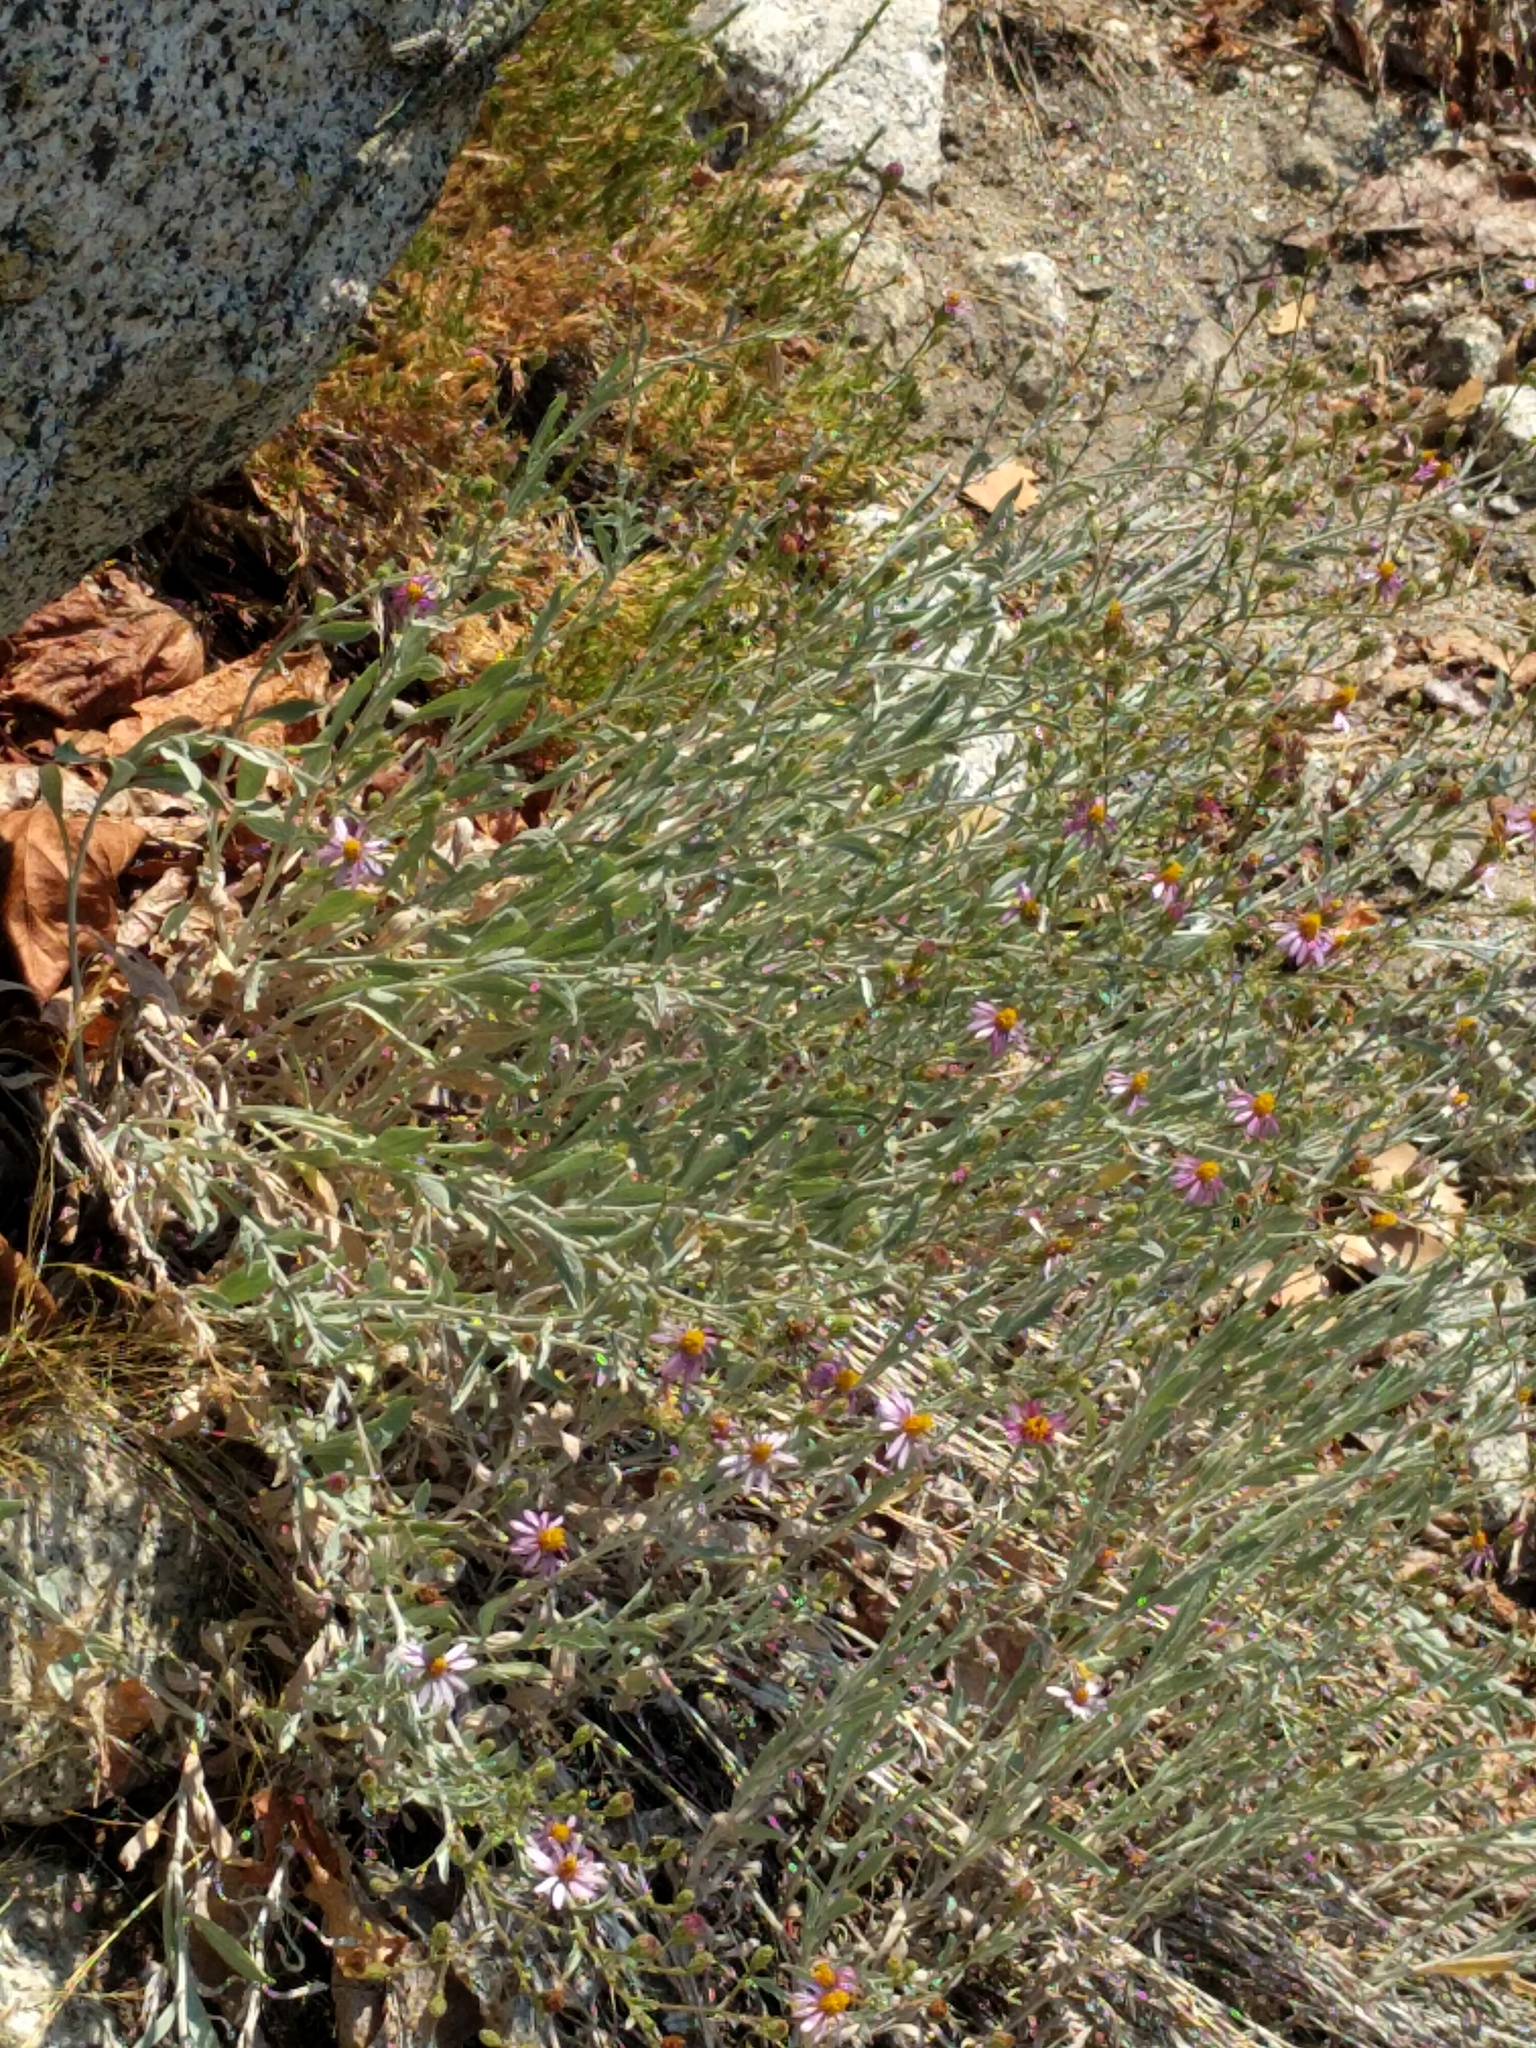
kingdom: Plantae
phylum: Tracheophyta
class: Magnoliopsida
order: Asterales
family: Asteraceae
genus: Corethrogyne
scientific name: Corethrogyne filaginifolia
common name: Sand-aster
